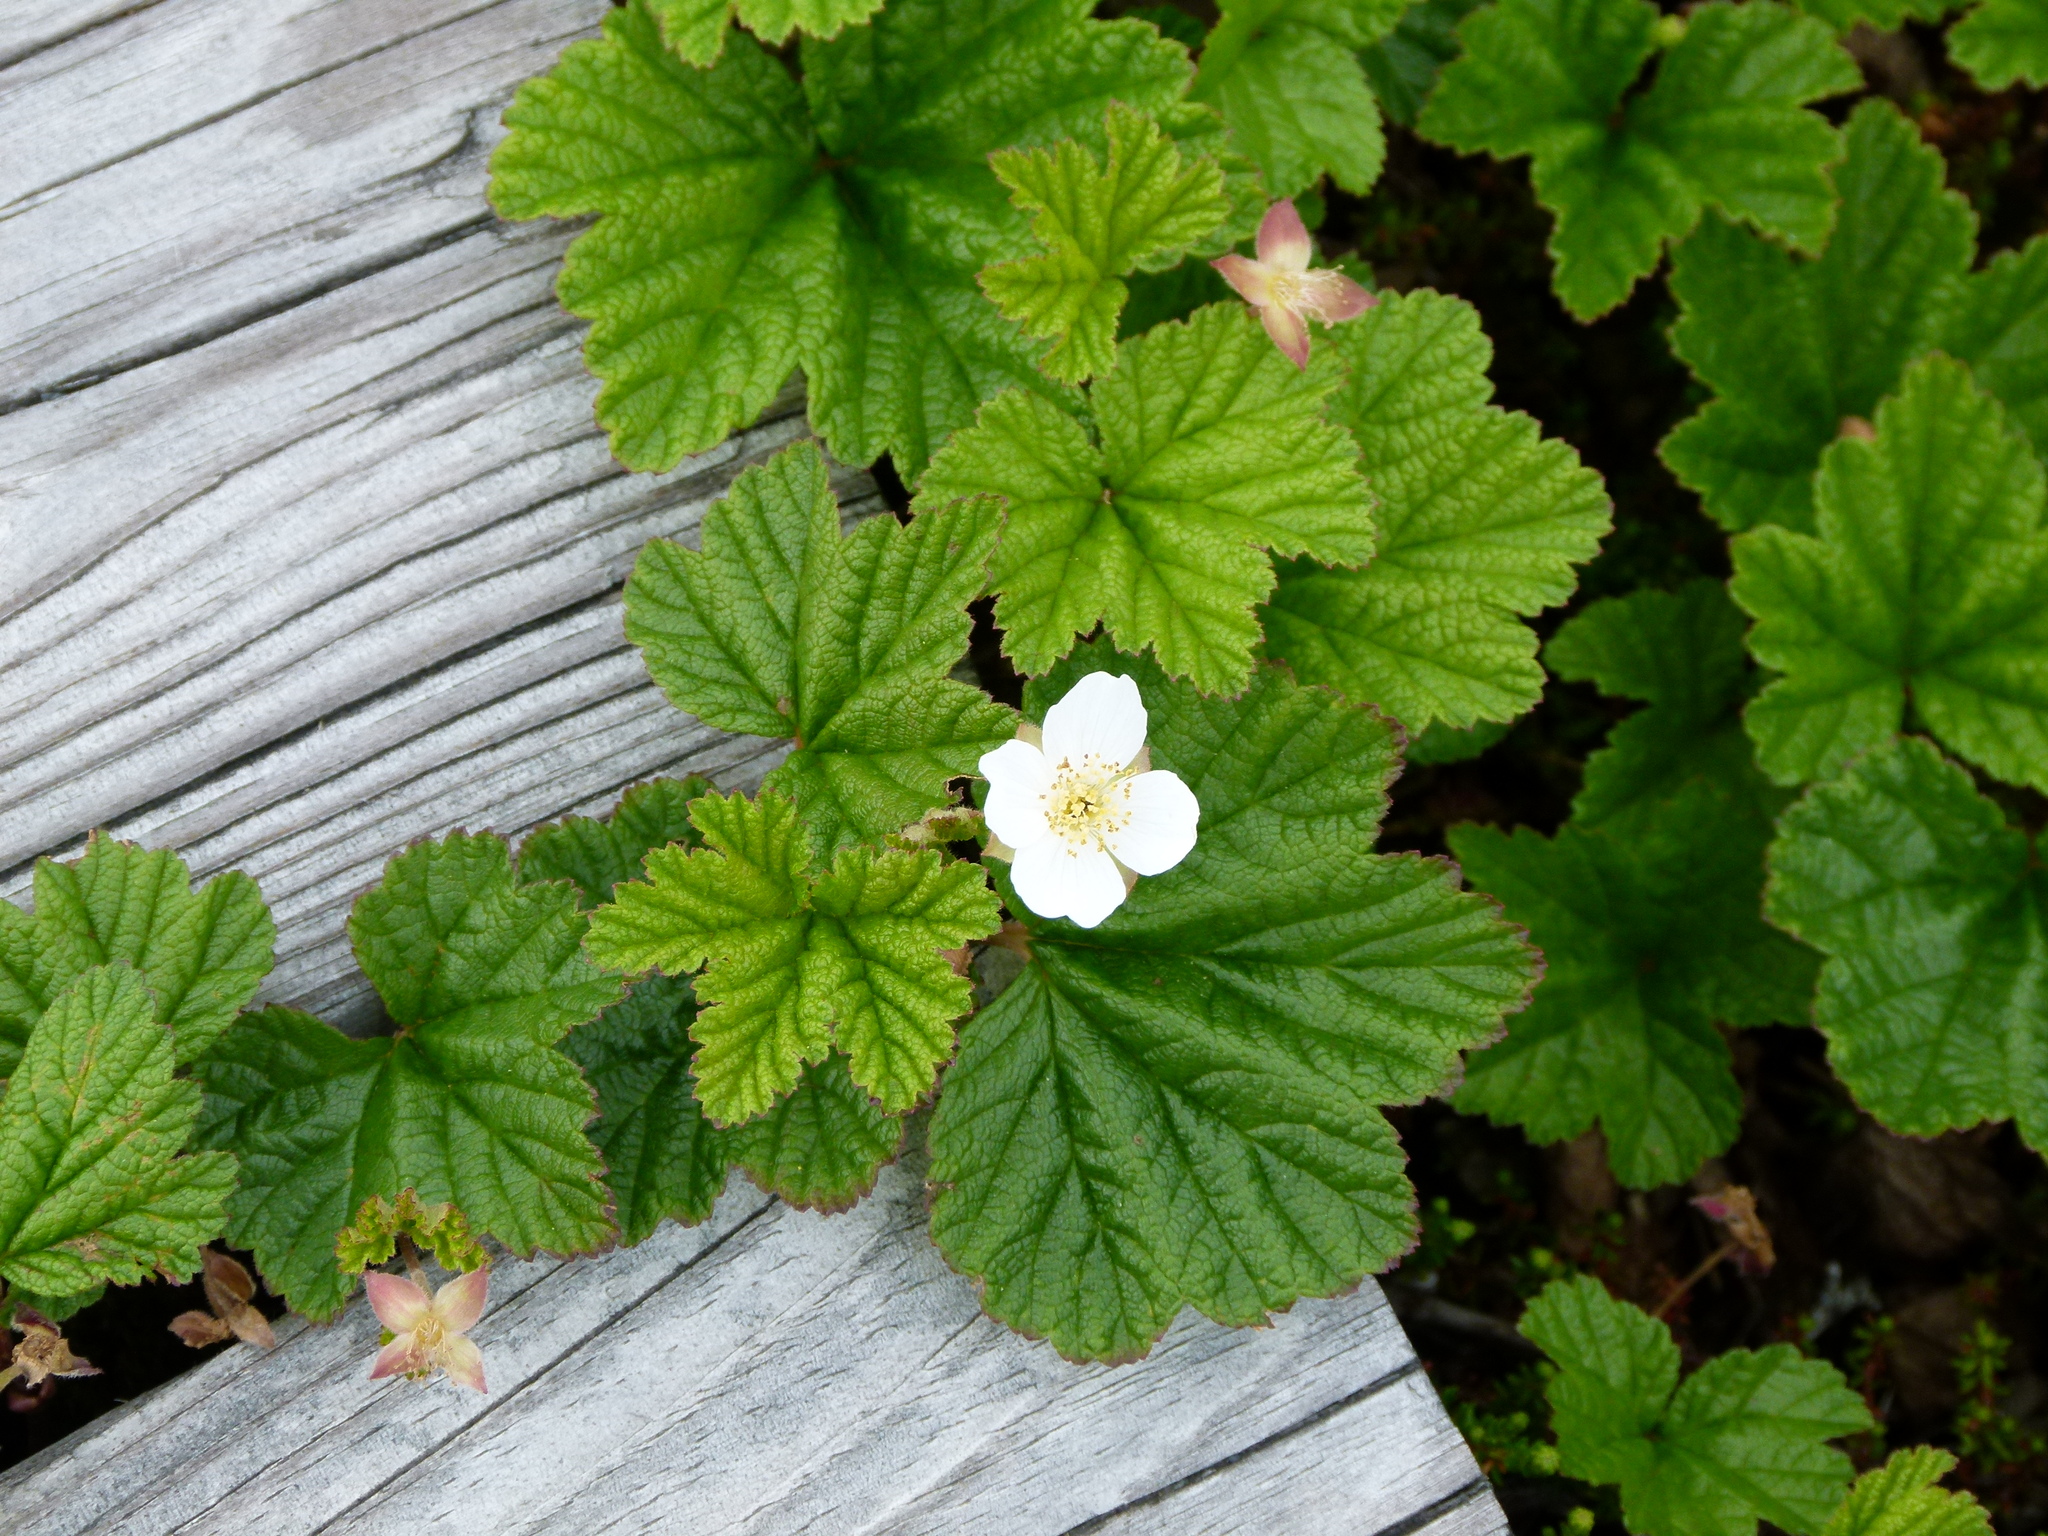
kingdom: Plantae
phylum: Tracheophyta
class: Magnoliopsida
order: Rosales
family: Rosaceae
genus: Rubus
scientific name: Rubus chamaemorus
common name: Cloudberry
